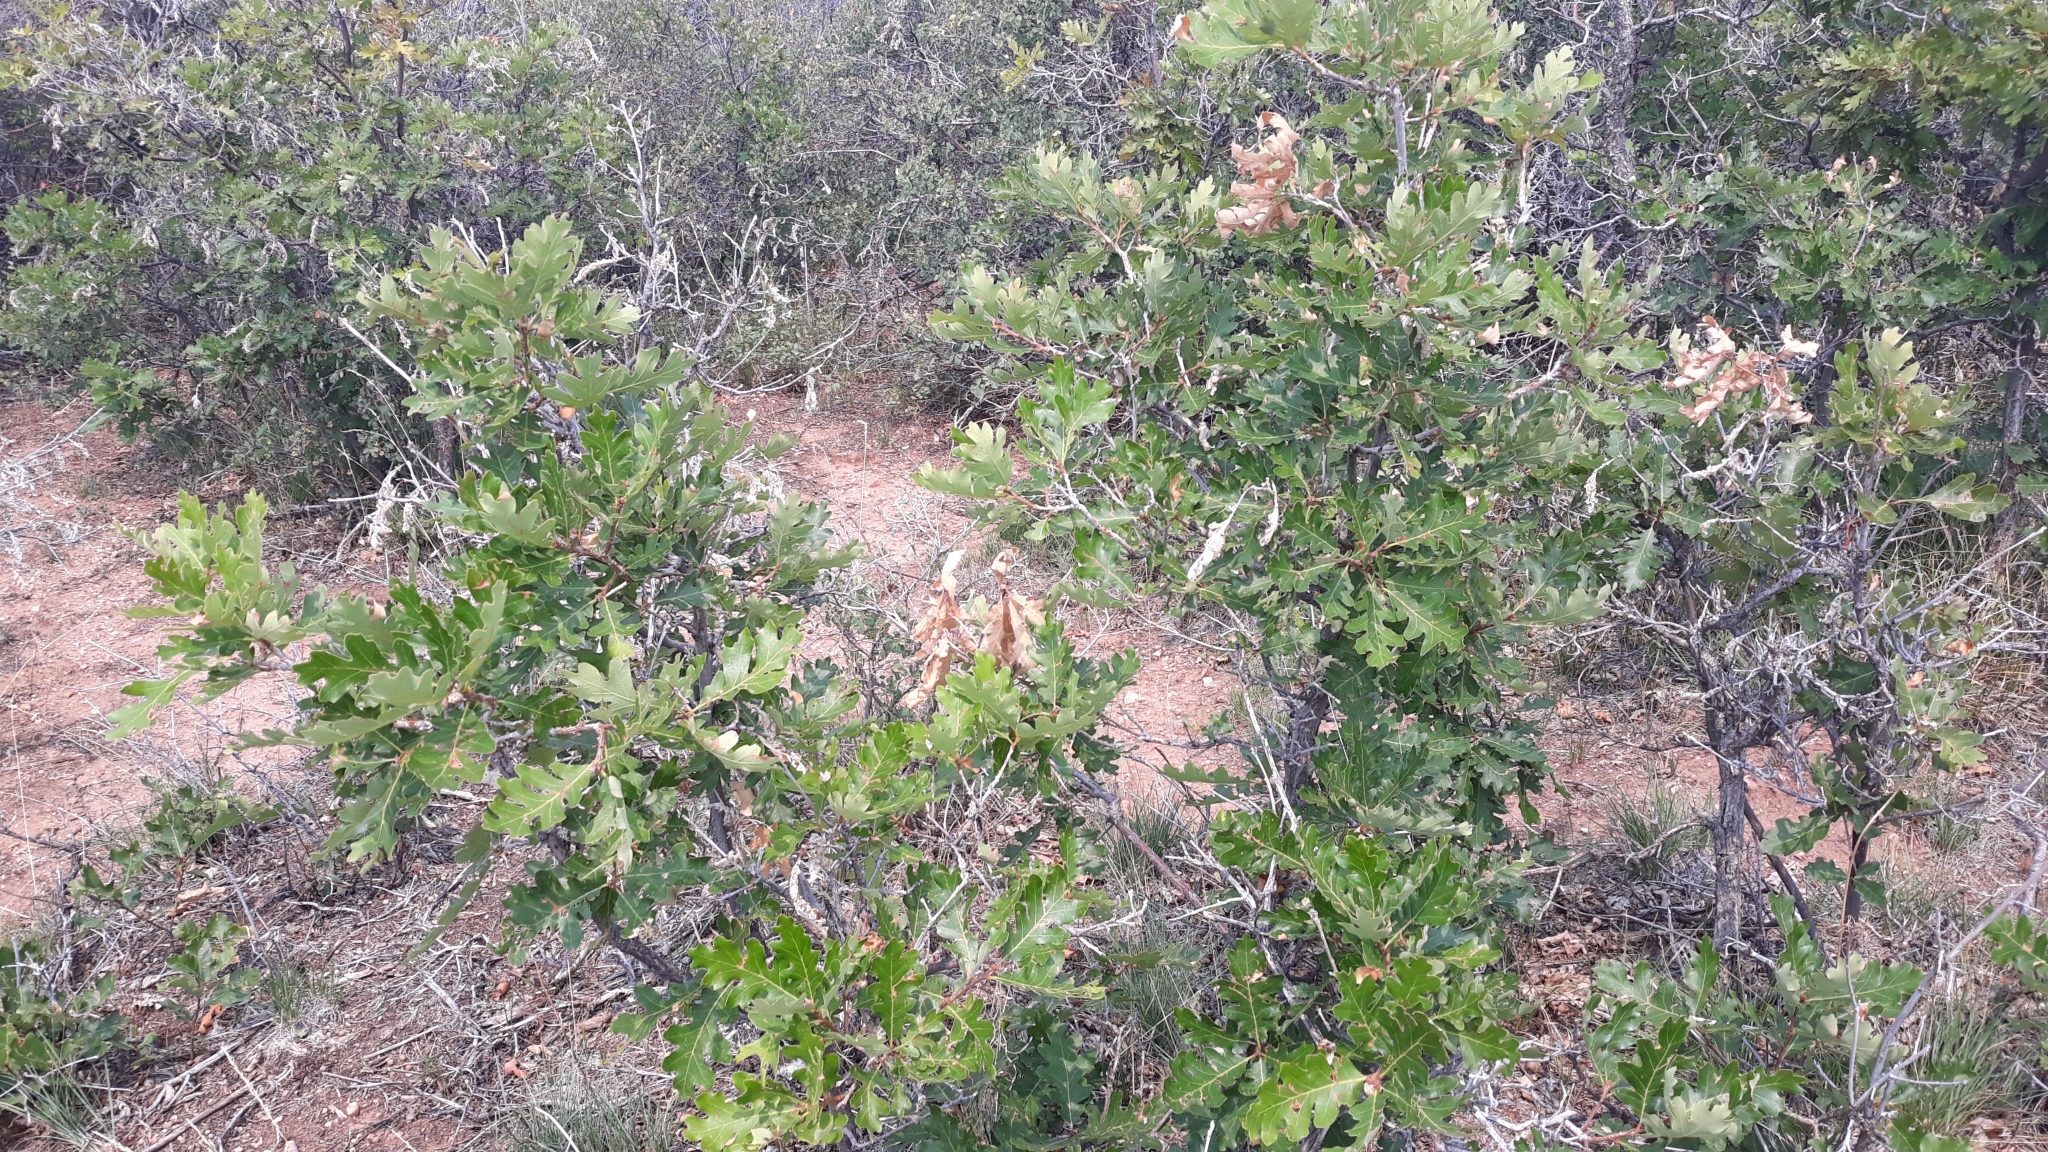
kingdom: Plantae
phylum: Tracheophyta
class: Magnoliopsida
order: Fagales
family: Fagaceae
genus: Quercus
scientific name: Quercus gambelii
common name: Gambel oak
